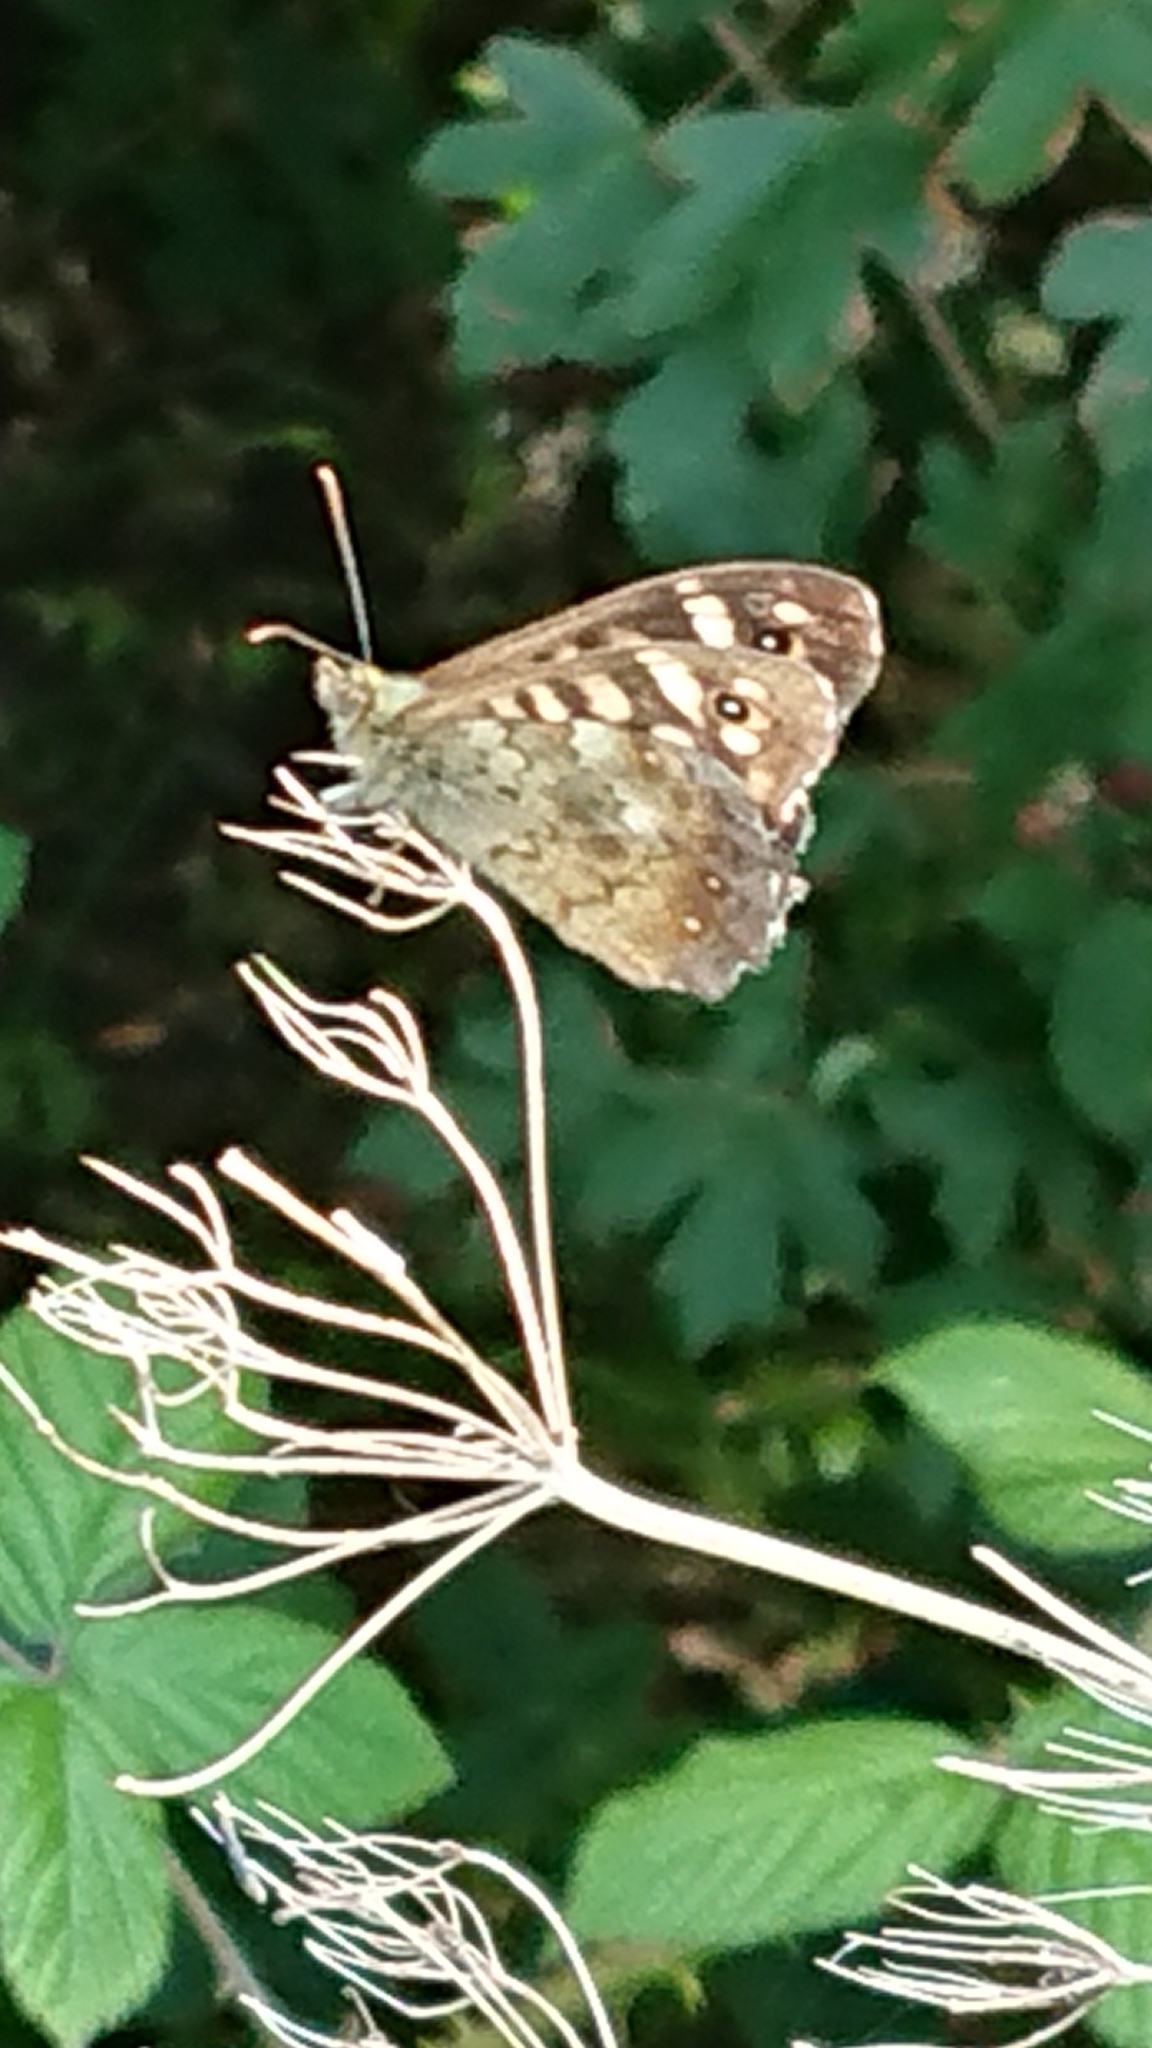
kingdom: Animalia
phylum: Arthropoda
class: Insecta
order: Lepidoptera
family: Nymphalidae
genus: Pararge
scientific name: Pararge aegeria
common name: Speckled wood
